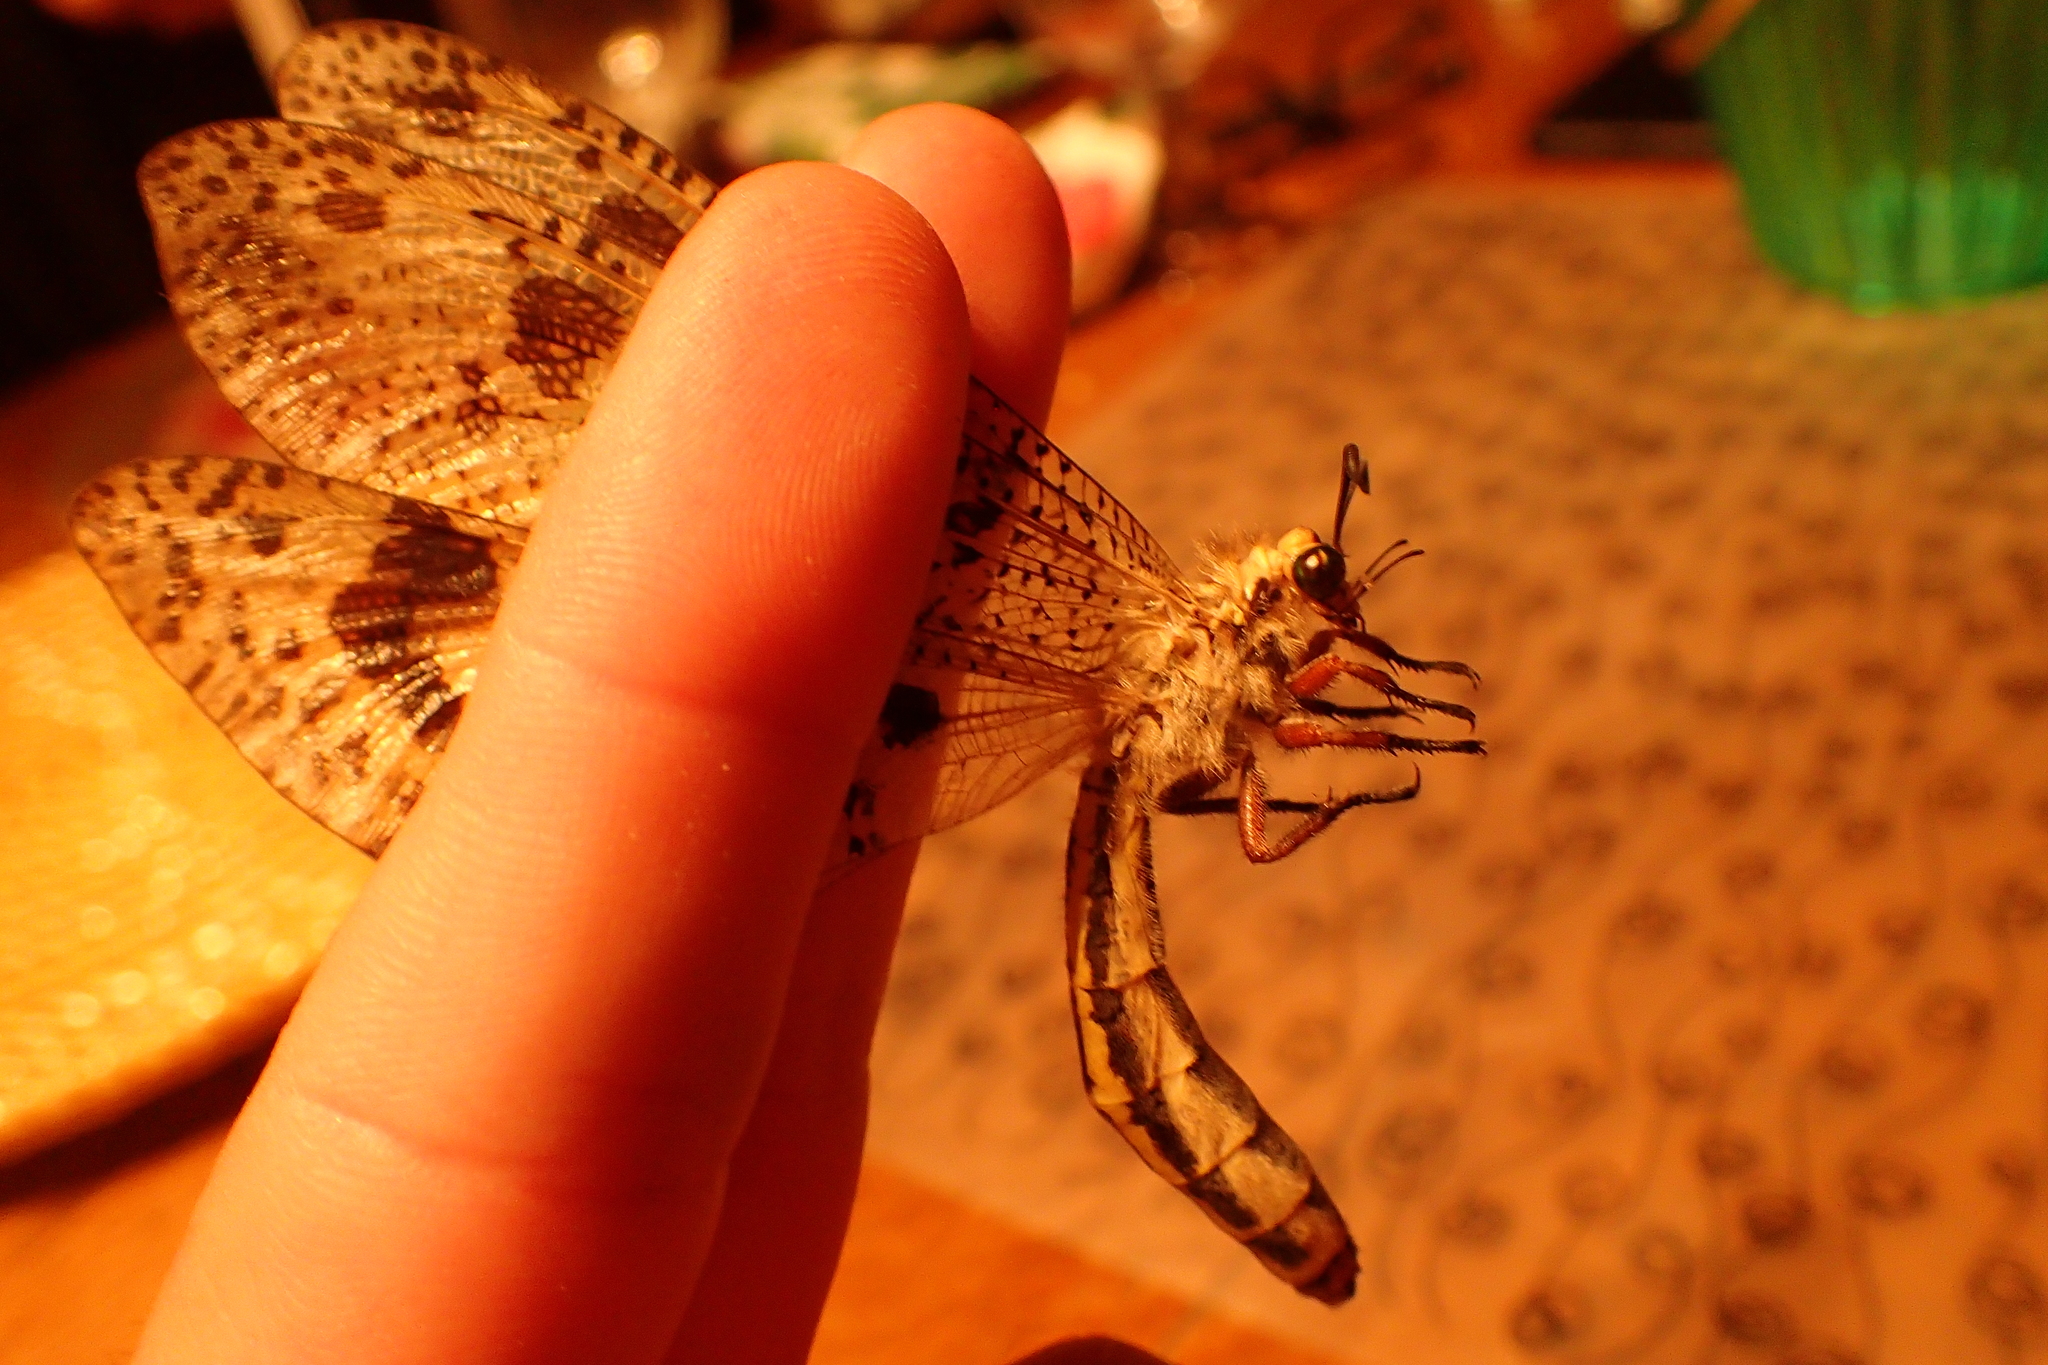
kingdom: Animalia
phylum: Arthropoda
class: Insecta
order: Neuroptera
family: Myrmeleontidae
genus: Palpares
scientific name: Palpares libelluloides
